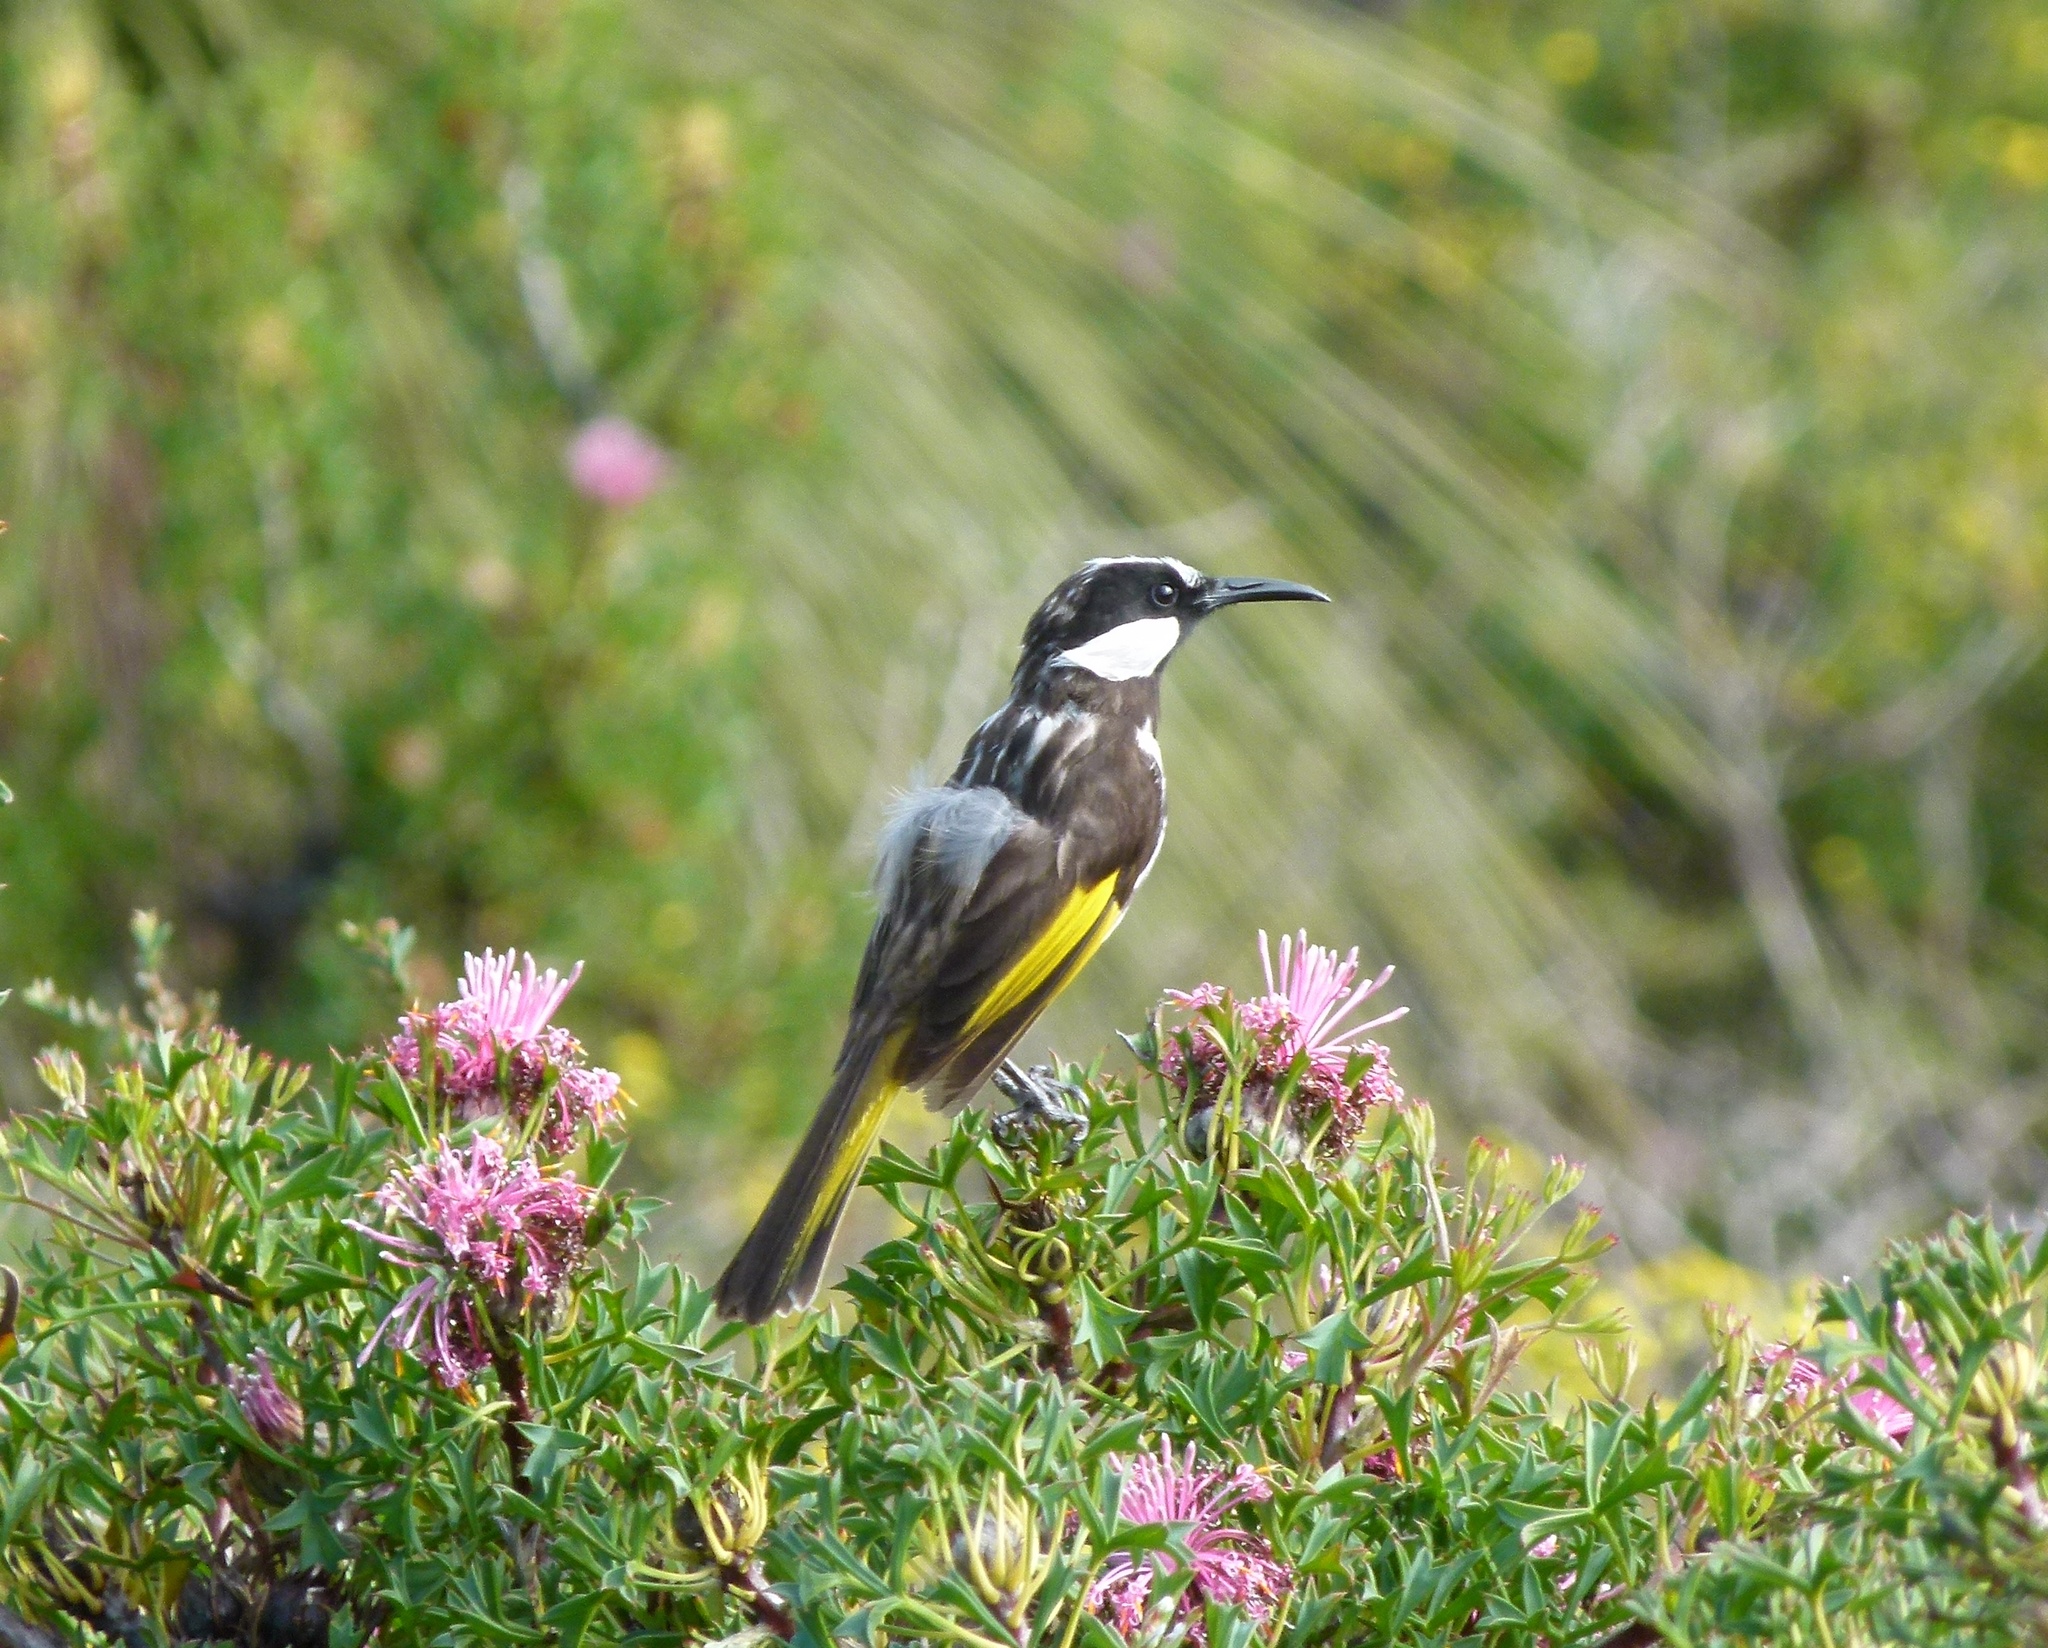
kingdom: Animalia
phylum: Chordata
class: Aves
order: Passeriformes
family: Meliphagidae
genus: Phylidonyris
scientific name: Phylidonyris niger
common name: White-cheeked honeyeater
